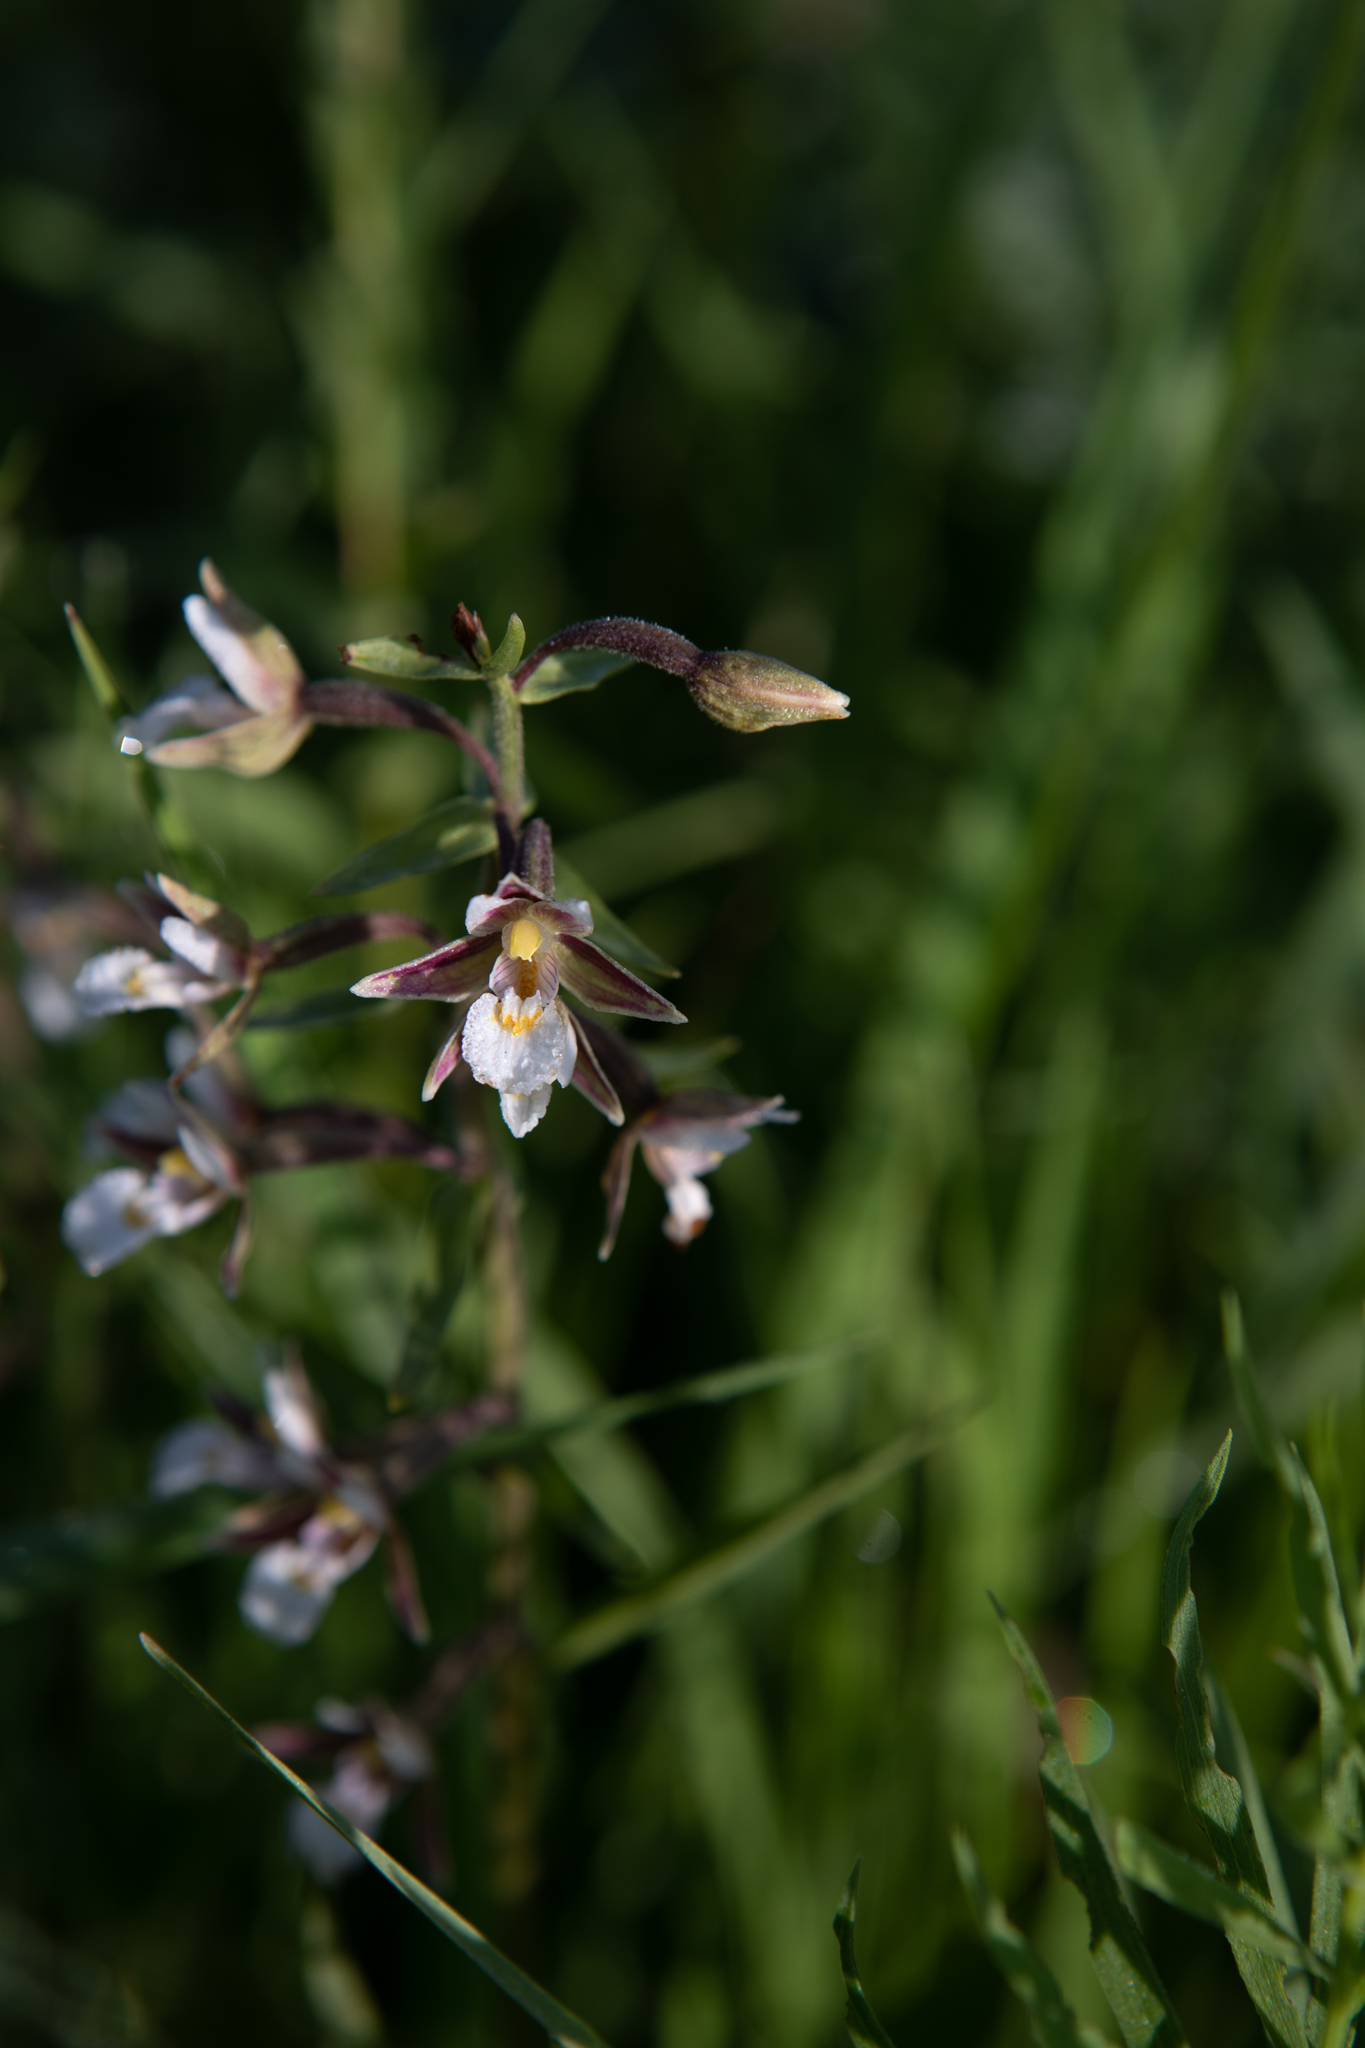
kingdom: Plantae
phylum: Tracheophyta
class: Liliopsida
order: Asparagales
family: Orchidaceae
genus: Epipactis
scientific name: Epipactis palustris
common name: Marsh helleborine
